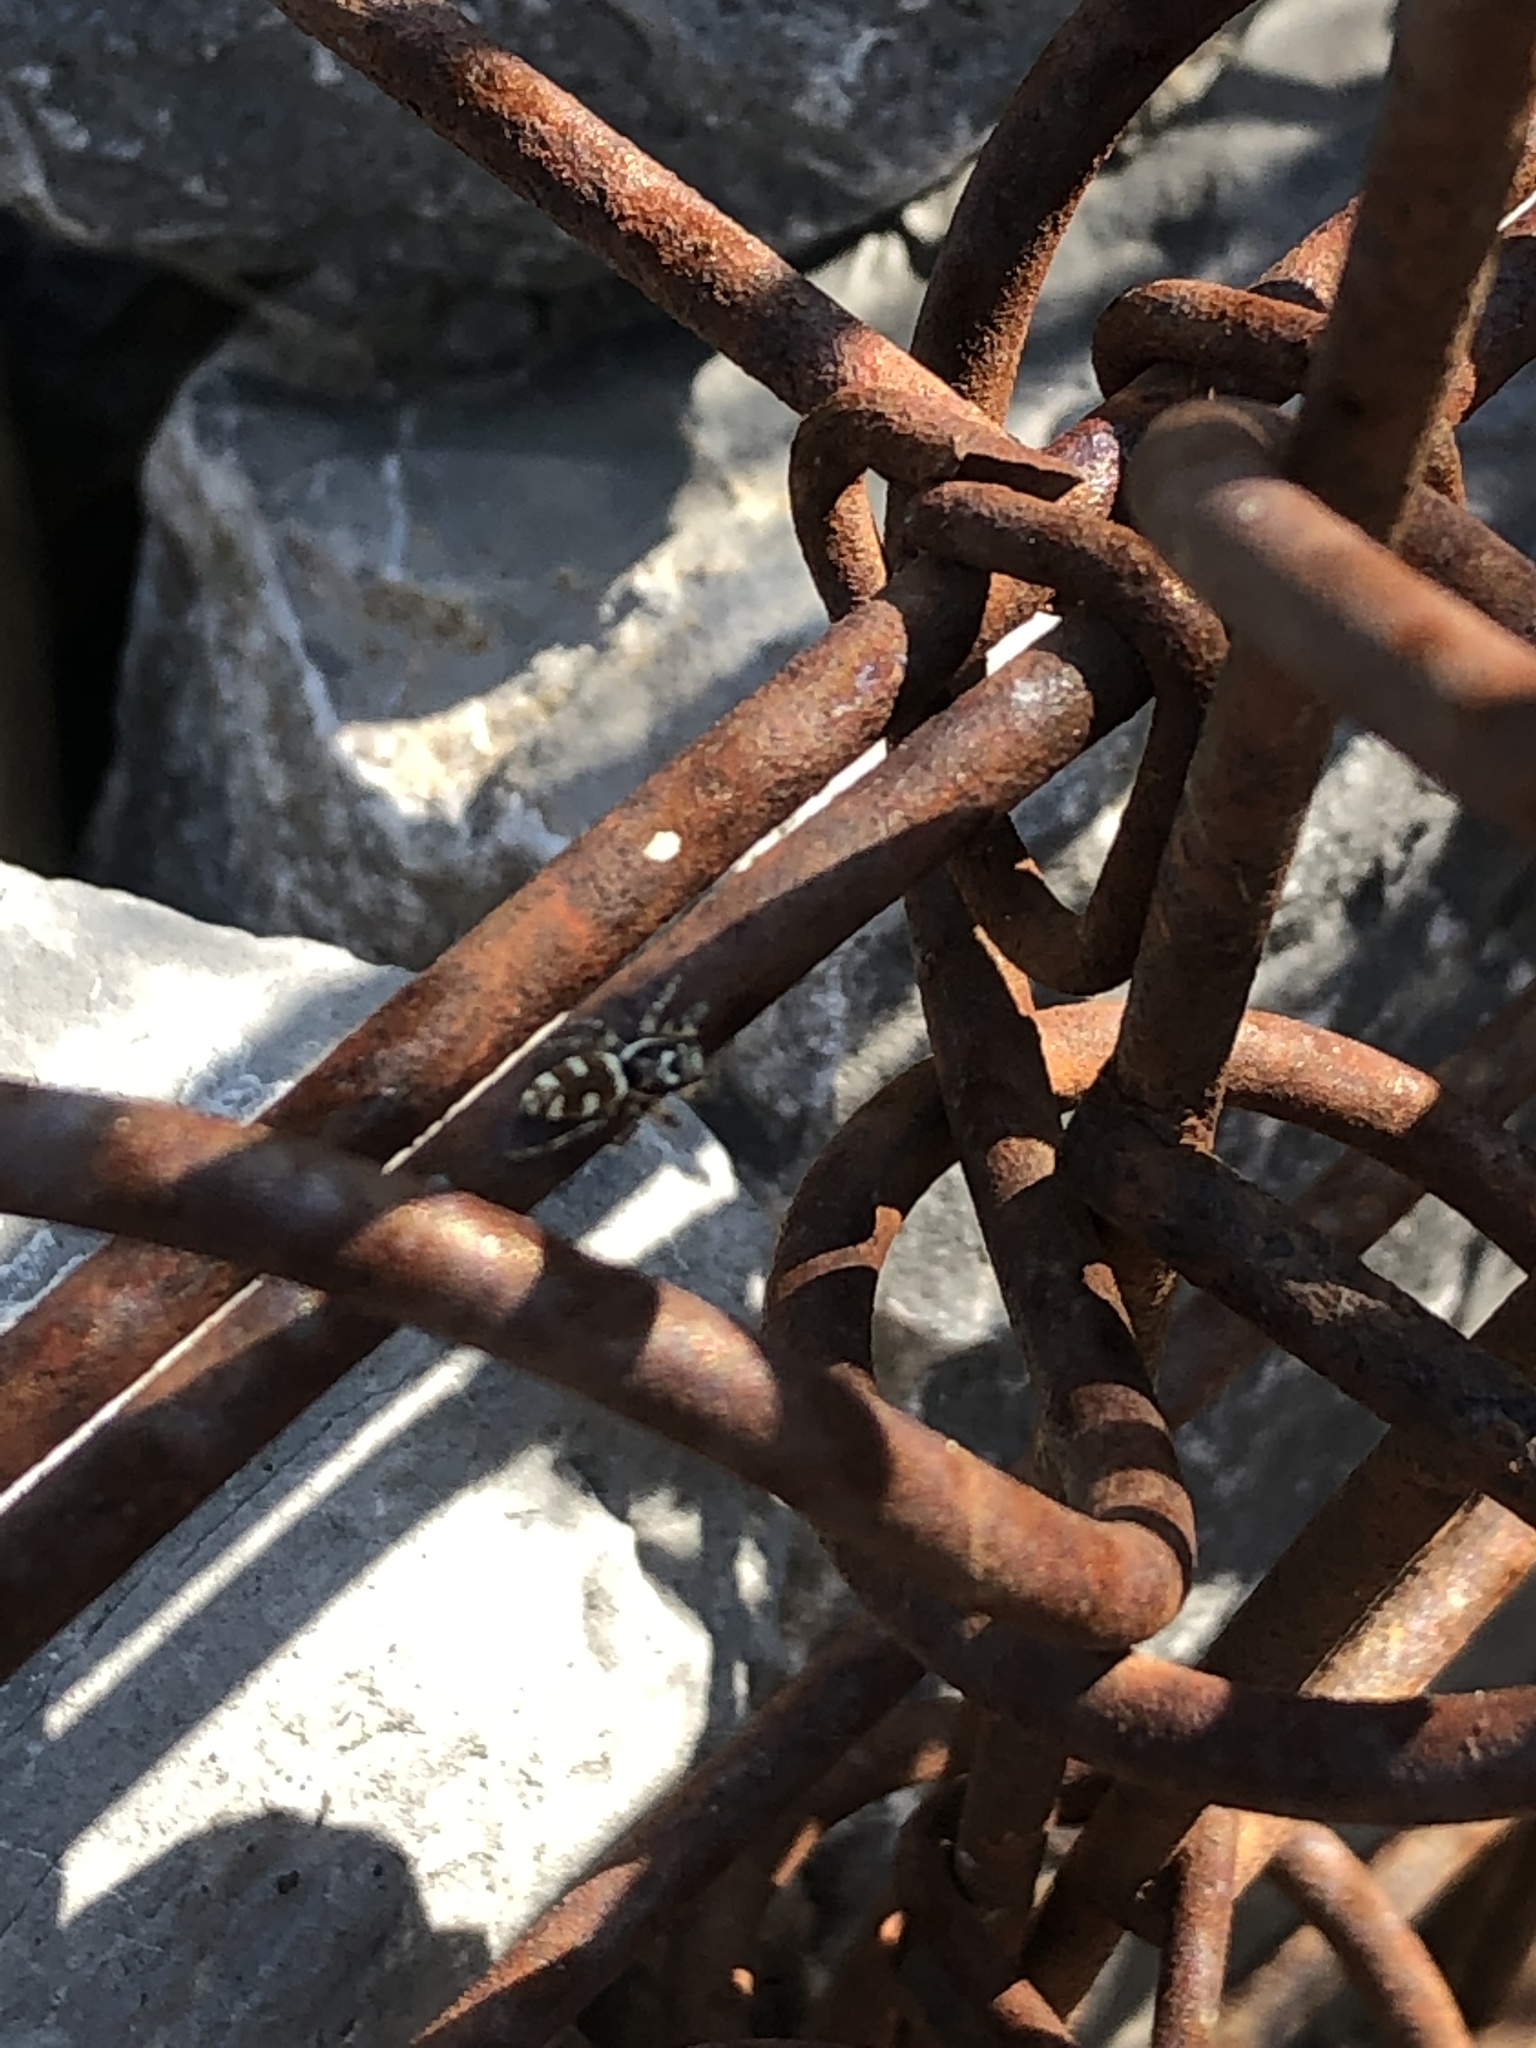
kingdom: Animalia
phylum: Arthropoda
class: Arachnida
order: Araneae
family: Salticidae
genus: Salticus
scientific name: Salticus scenicus
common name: Zebra jumper
